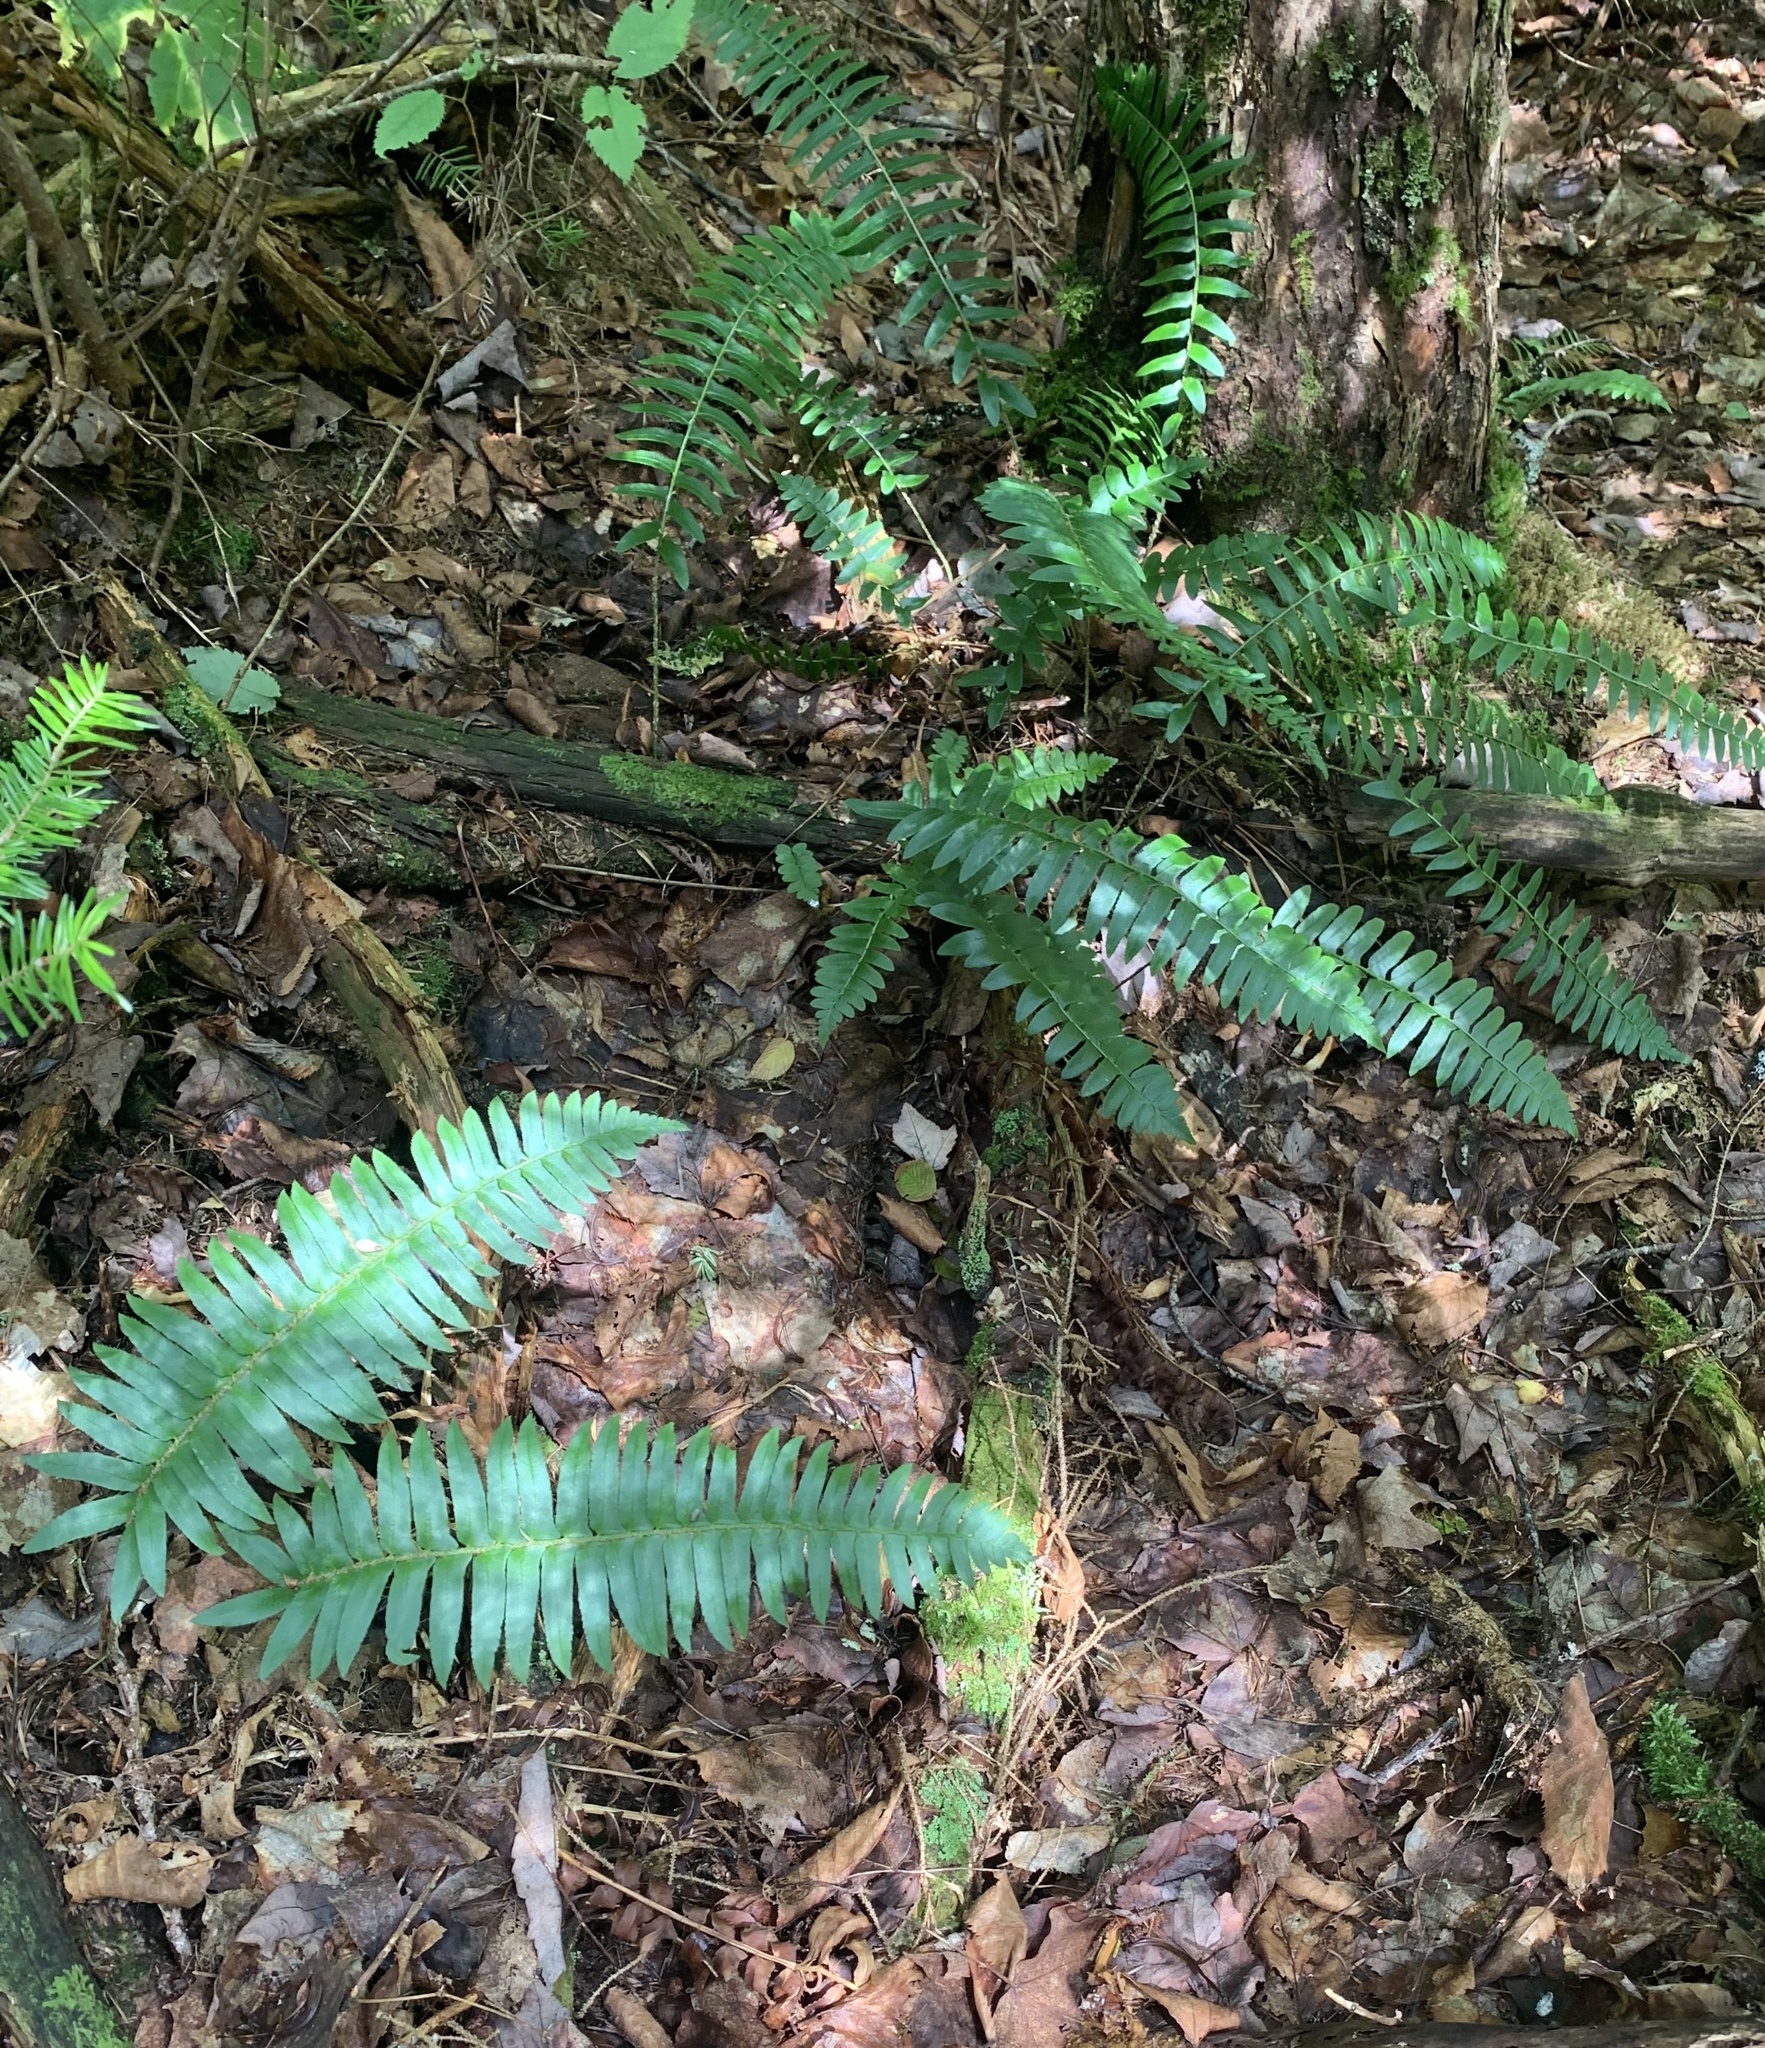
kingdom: Plantae
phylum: Tracheophyta
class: Polypodiopsida
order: Polypodiales
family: Dryopteridaceae
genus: Polystichum
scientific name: Polystichum acrostichoides
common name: Christmas fern
